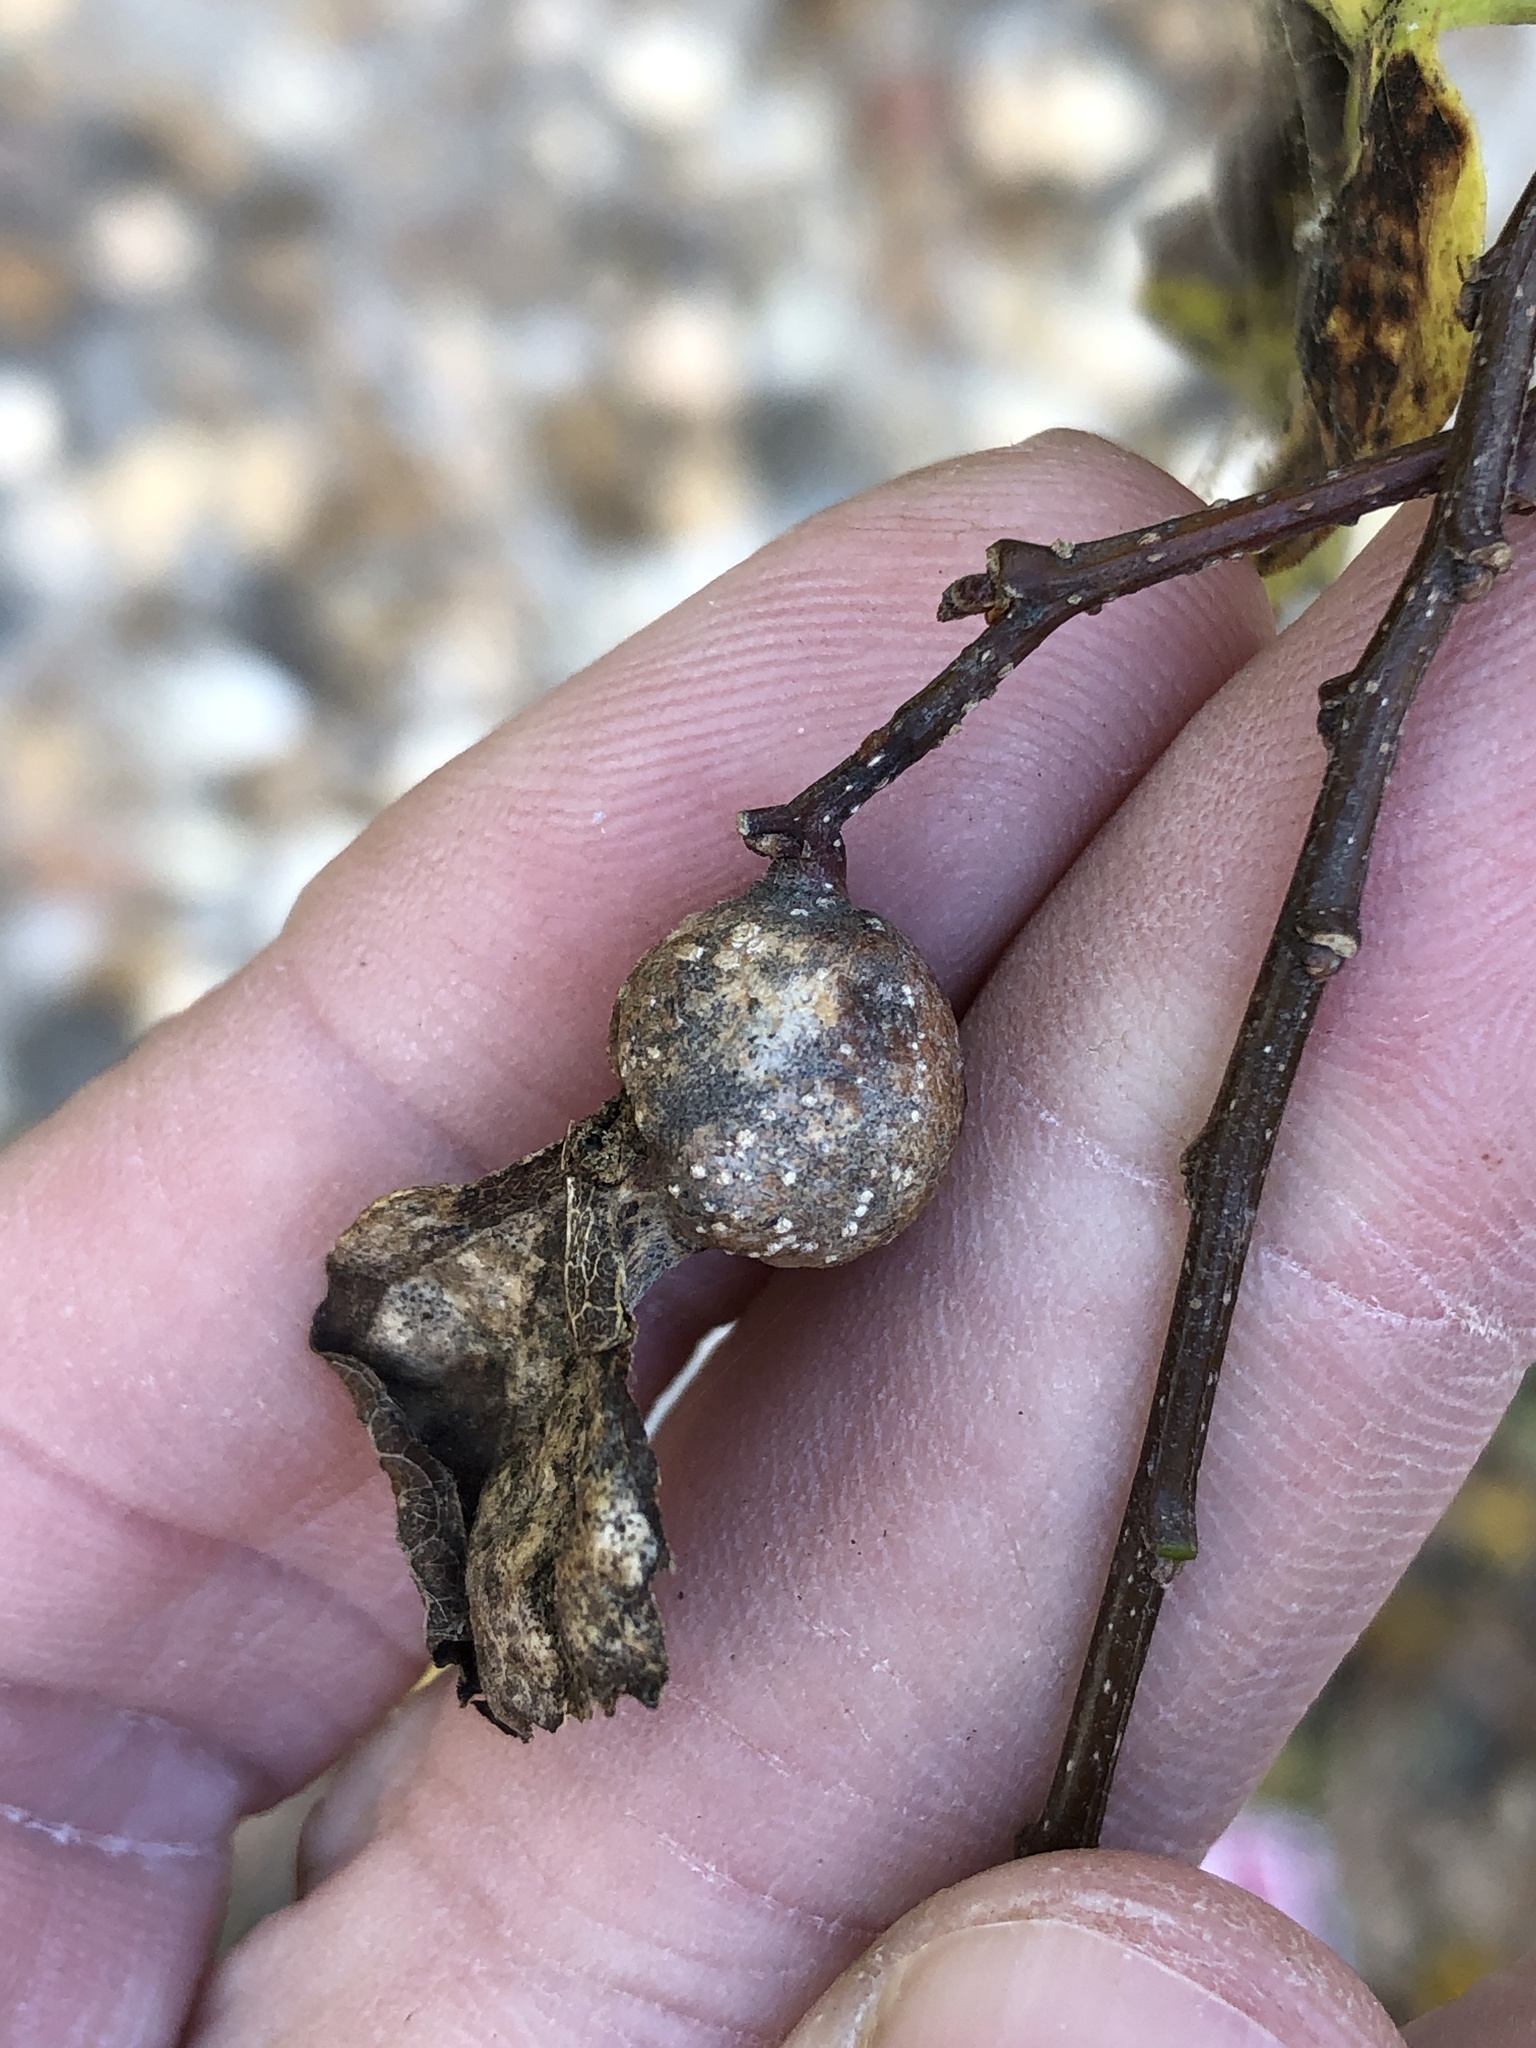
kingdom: Animalia
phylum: Arthropoda
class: Insecta
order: Hemiptera
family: Aphalaridae
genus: Pachypsylla
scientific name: Pachypsylla venusta
